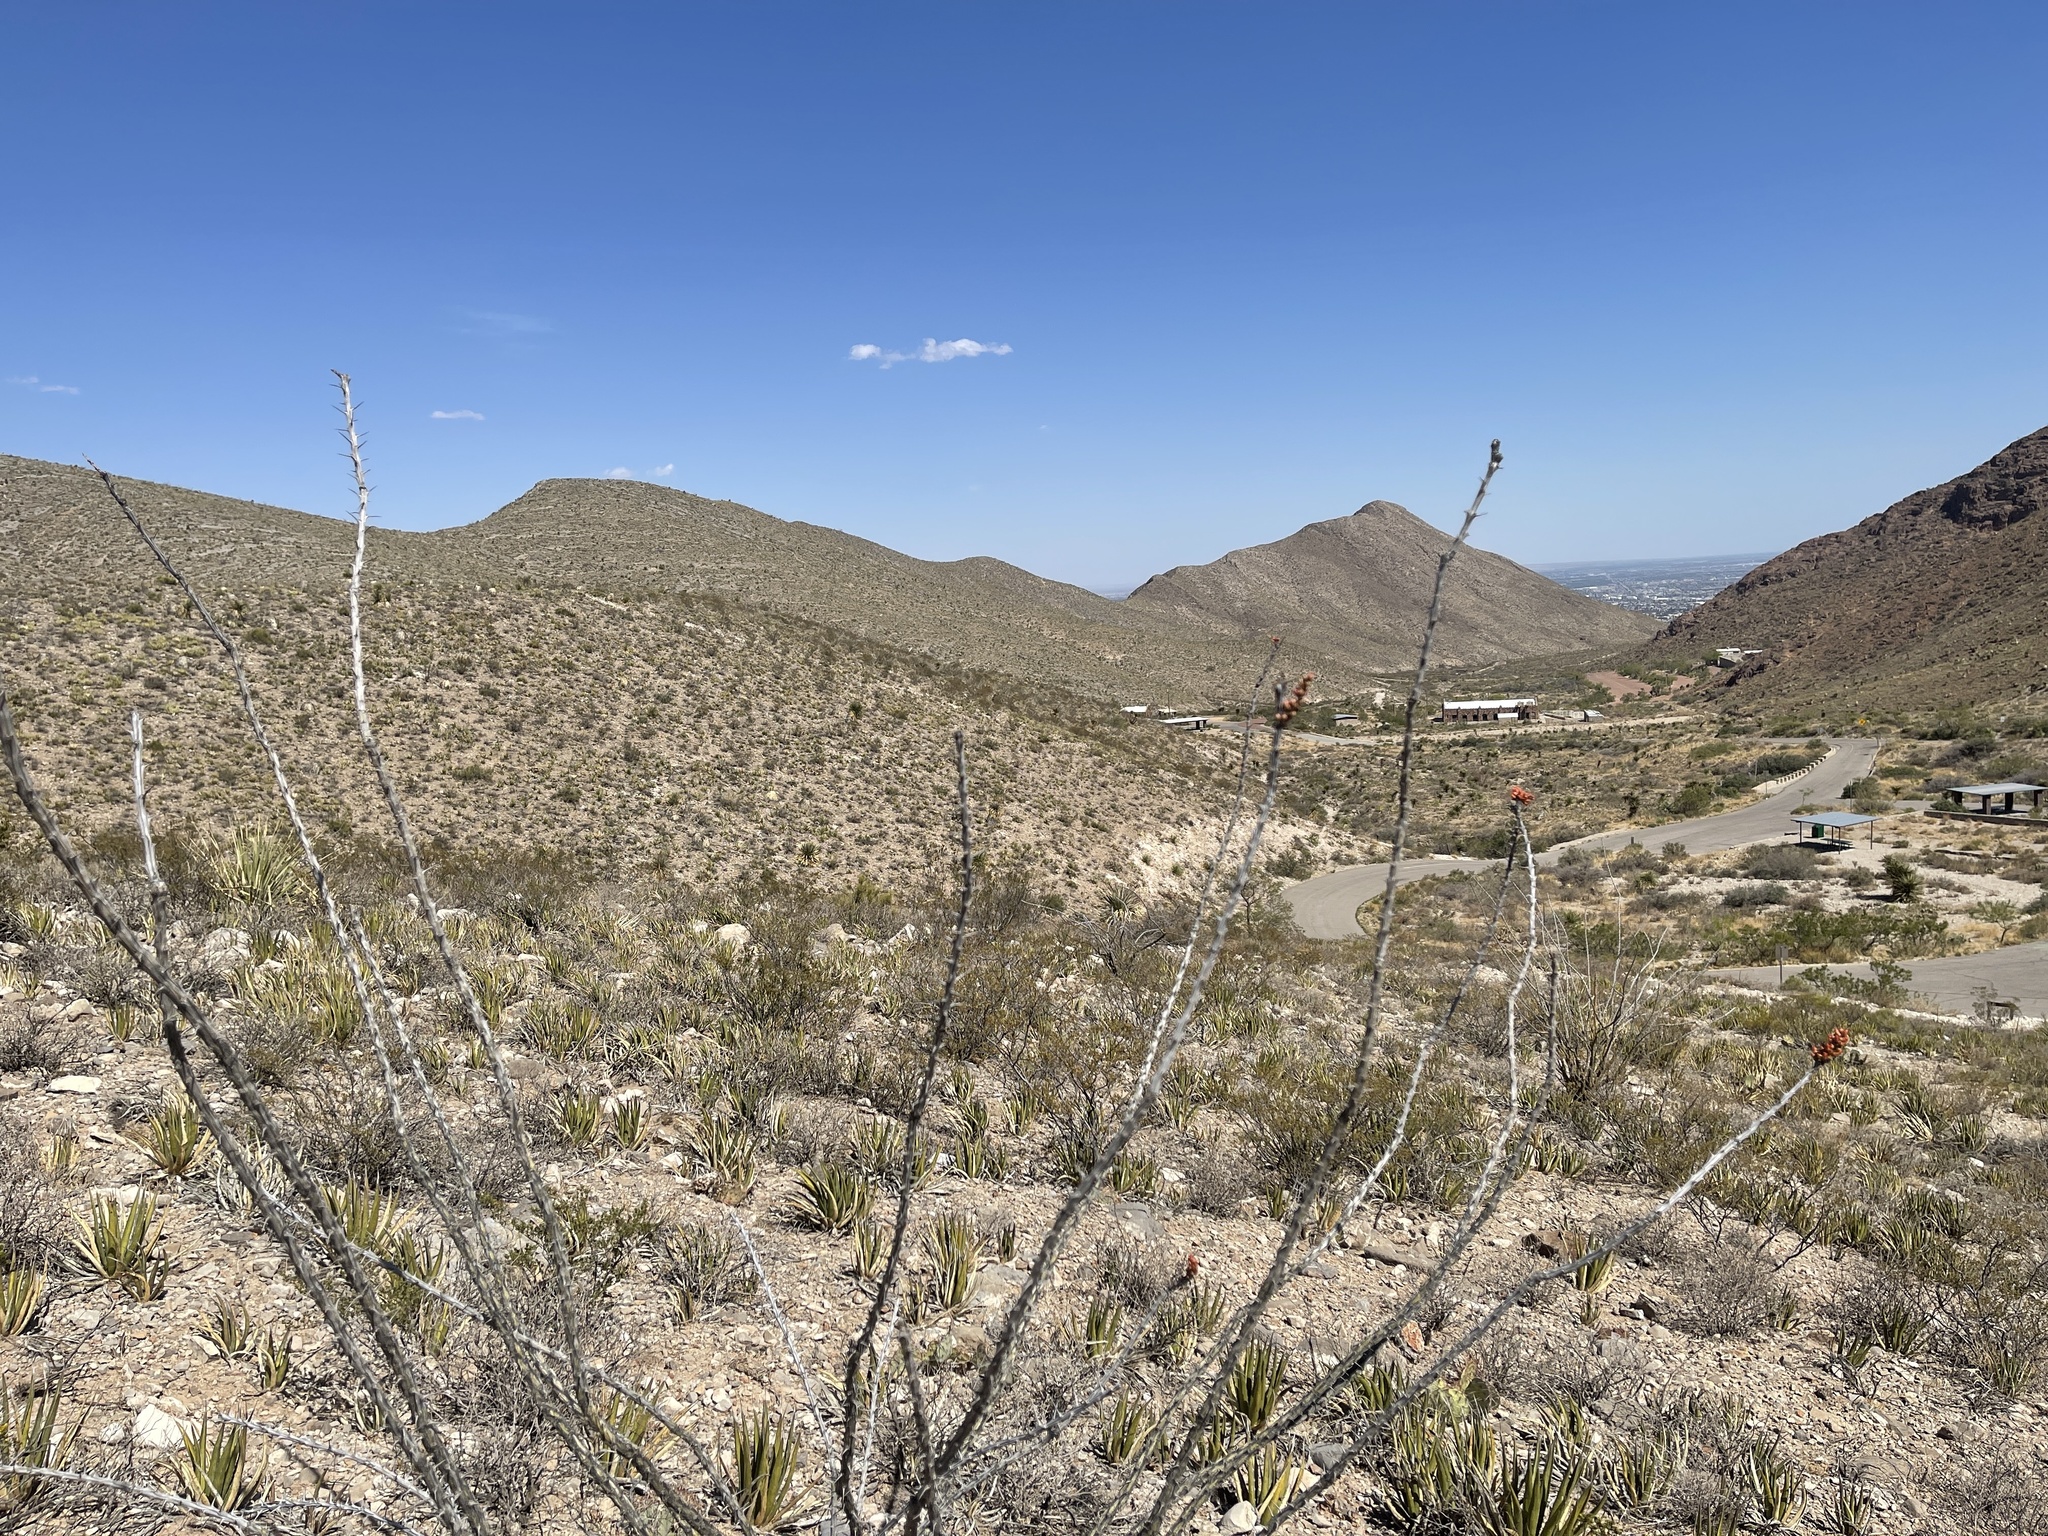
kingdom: Plantae
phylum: Tracheophyta
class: Magnoliopsida
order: Ericales
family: Fouquieriaceae
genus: Fouquieria
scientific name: Fouquieria splendens
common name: Vine-cactus
